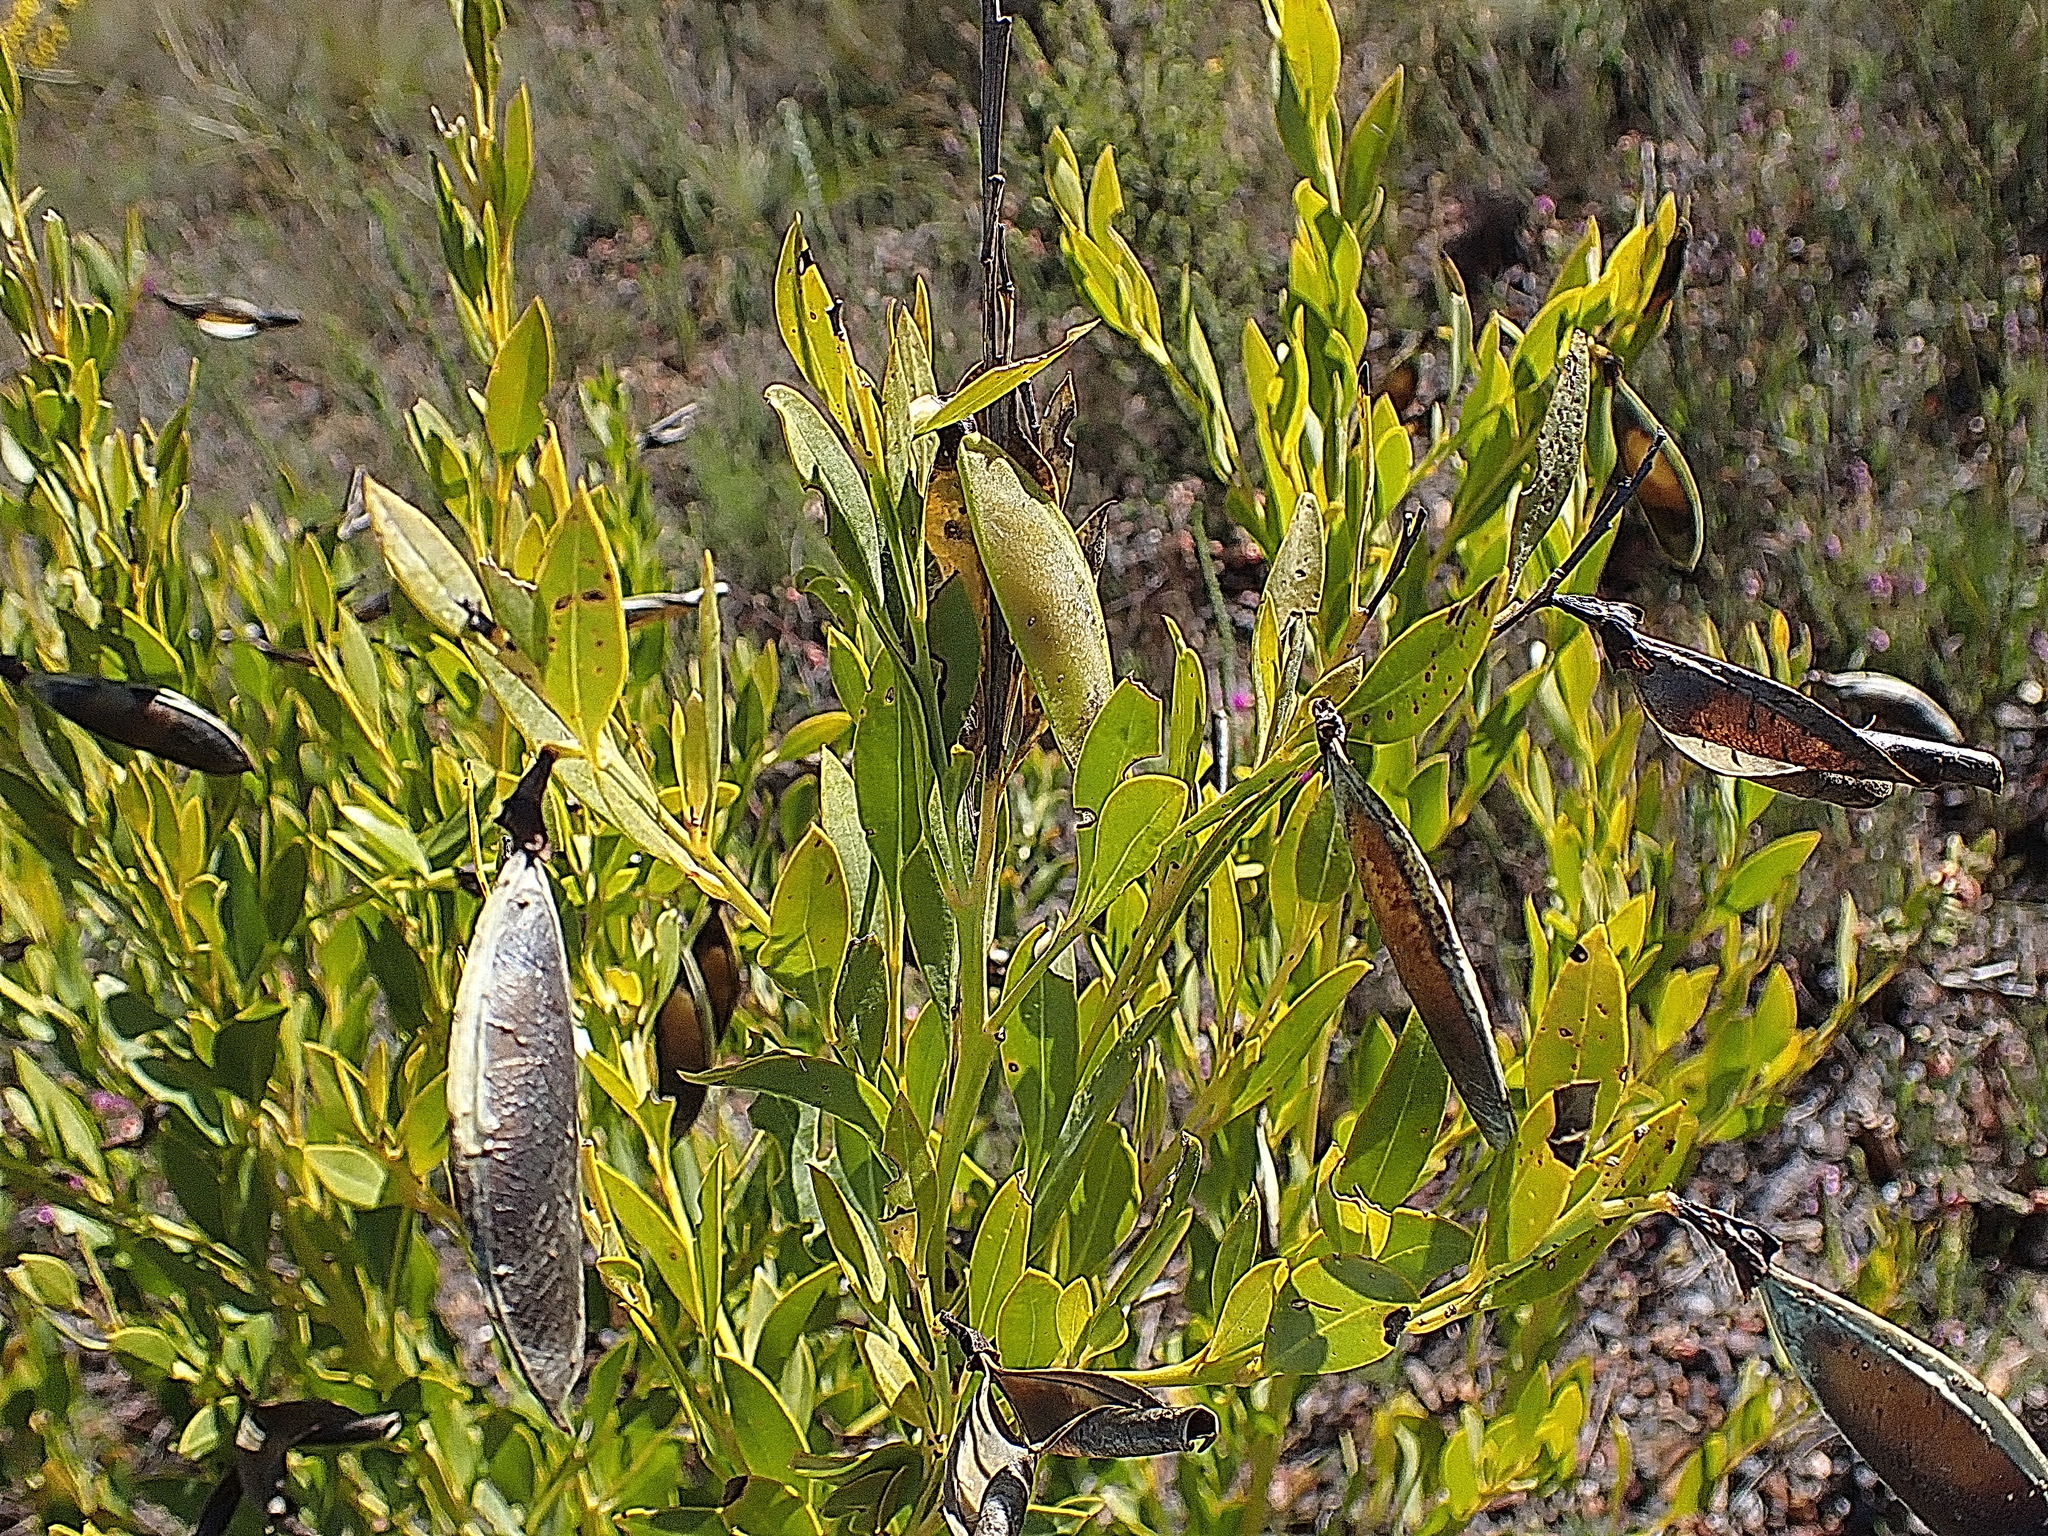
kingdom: Plantae
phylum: Tracheophyta
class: Magnoliopsida
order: Fabales
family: Fabaceae
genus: Rafnia
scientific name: Rafnia vlokii
